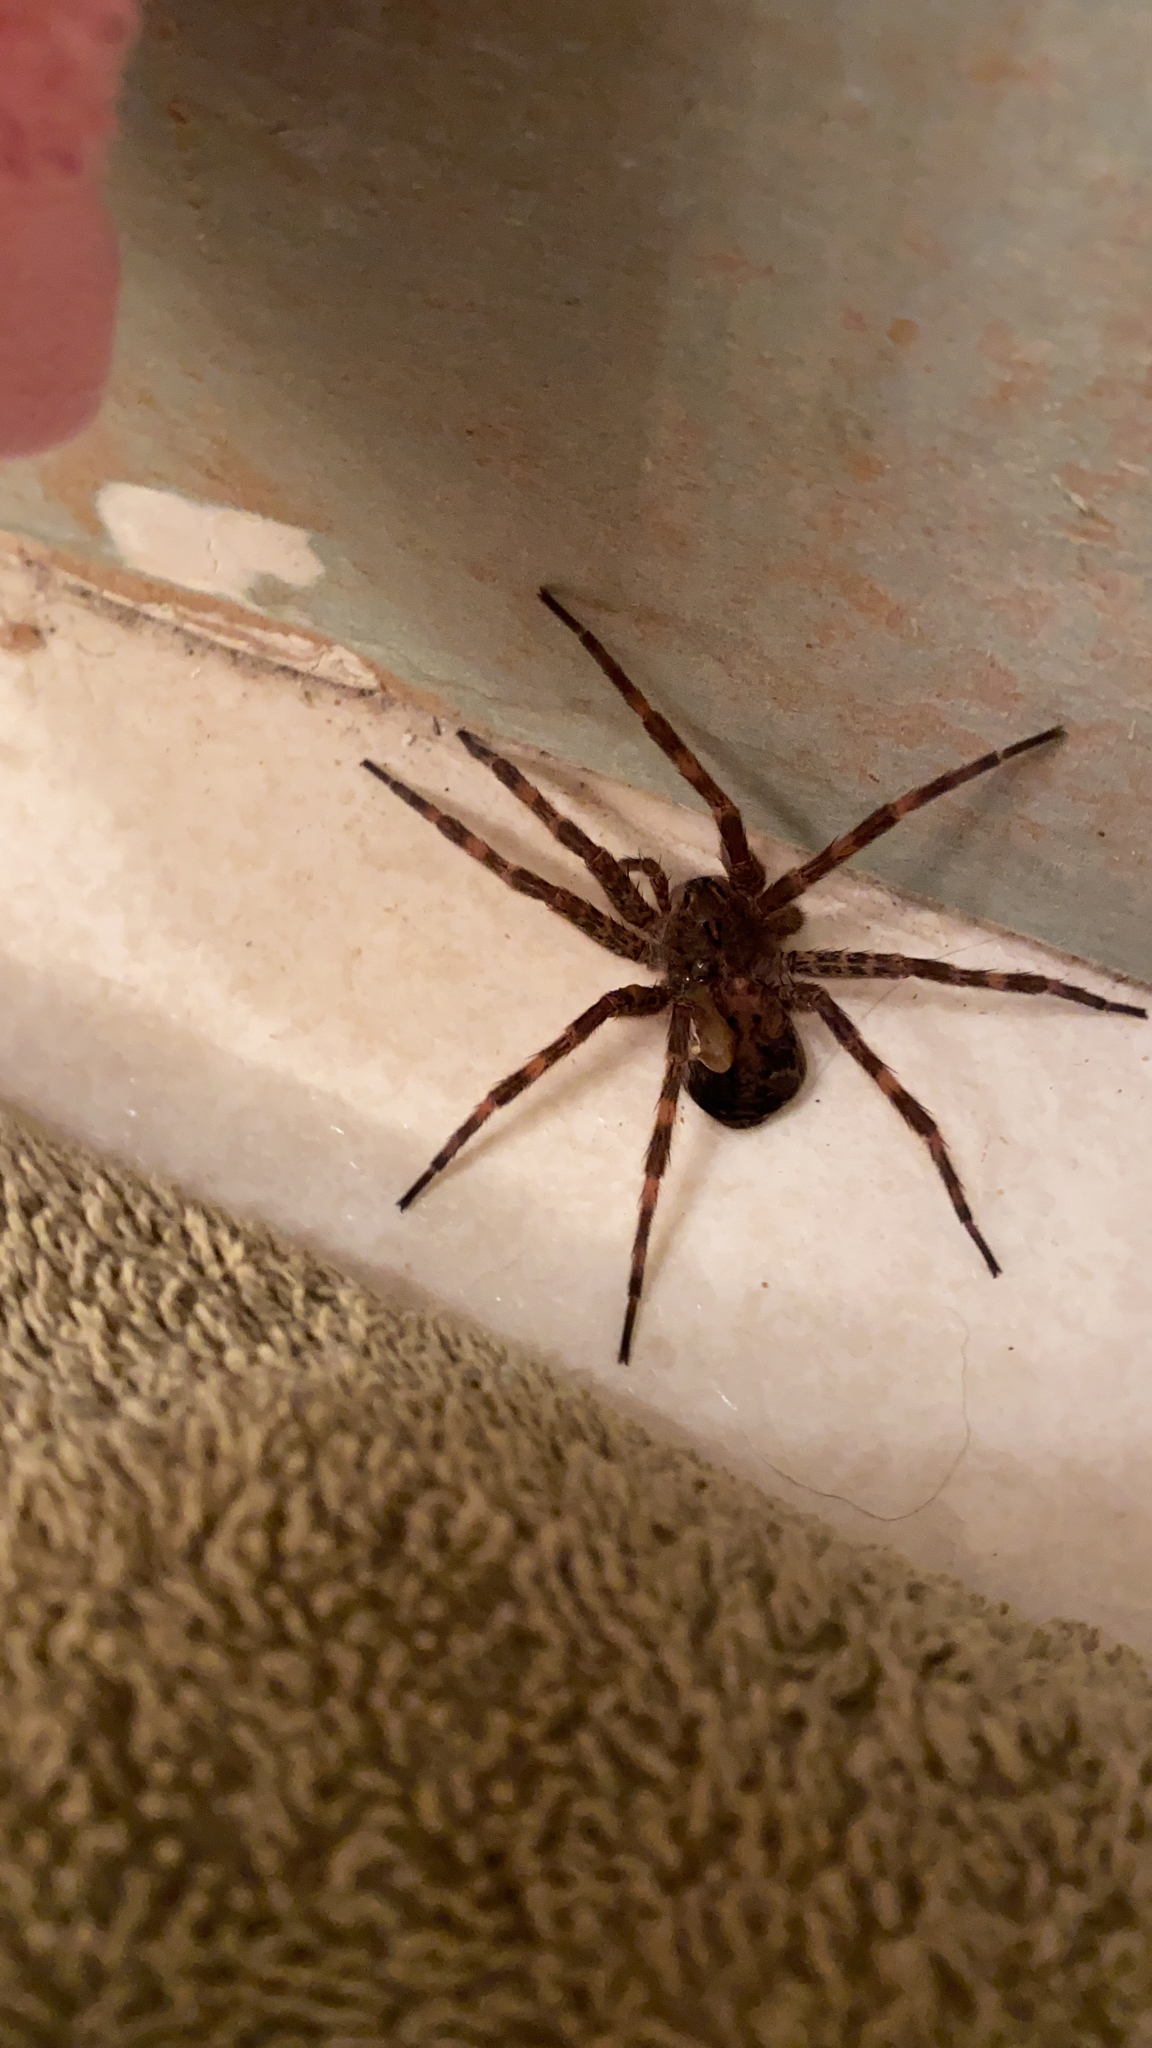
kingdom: Animalia
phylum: Arthropoda
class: Arachnida
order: Araneae
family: Pisauridae
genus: Dolomedes
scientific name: Dolomedes tenebrosus
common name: Dark fishing spider
